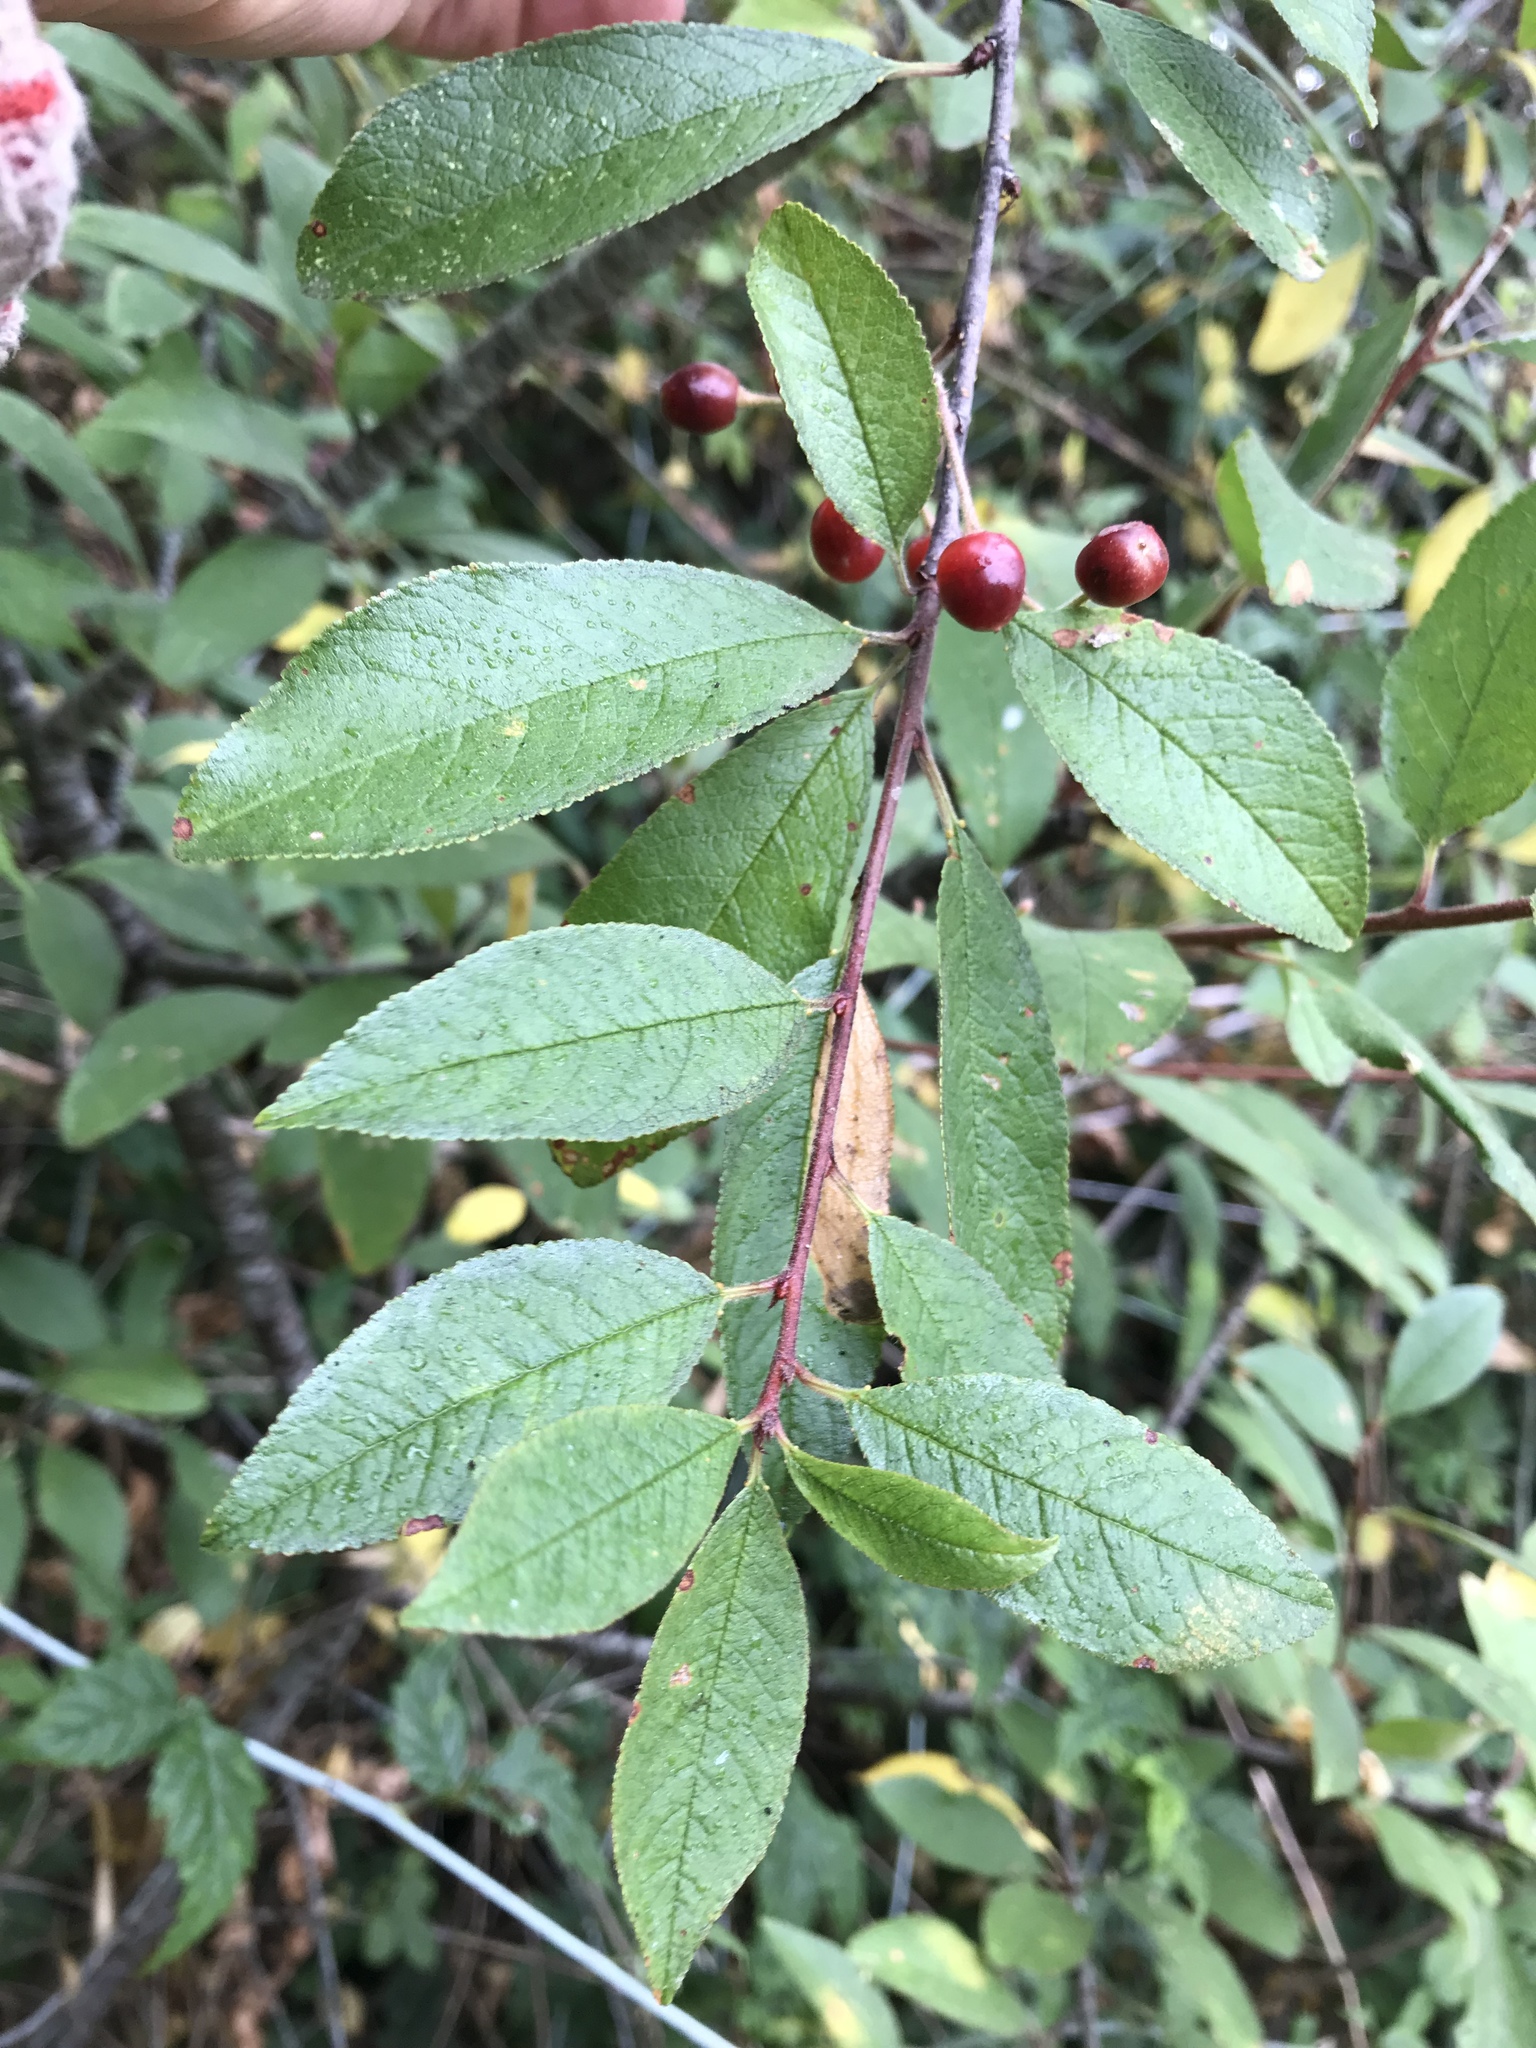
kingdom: Plantae
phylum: Tracheophyta
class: Magnoliopsida
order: Rosales
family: Rosaceae
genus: Prunus
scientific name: Prunus emarginata
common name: Bitter cherry
